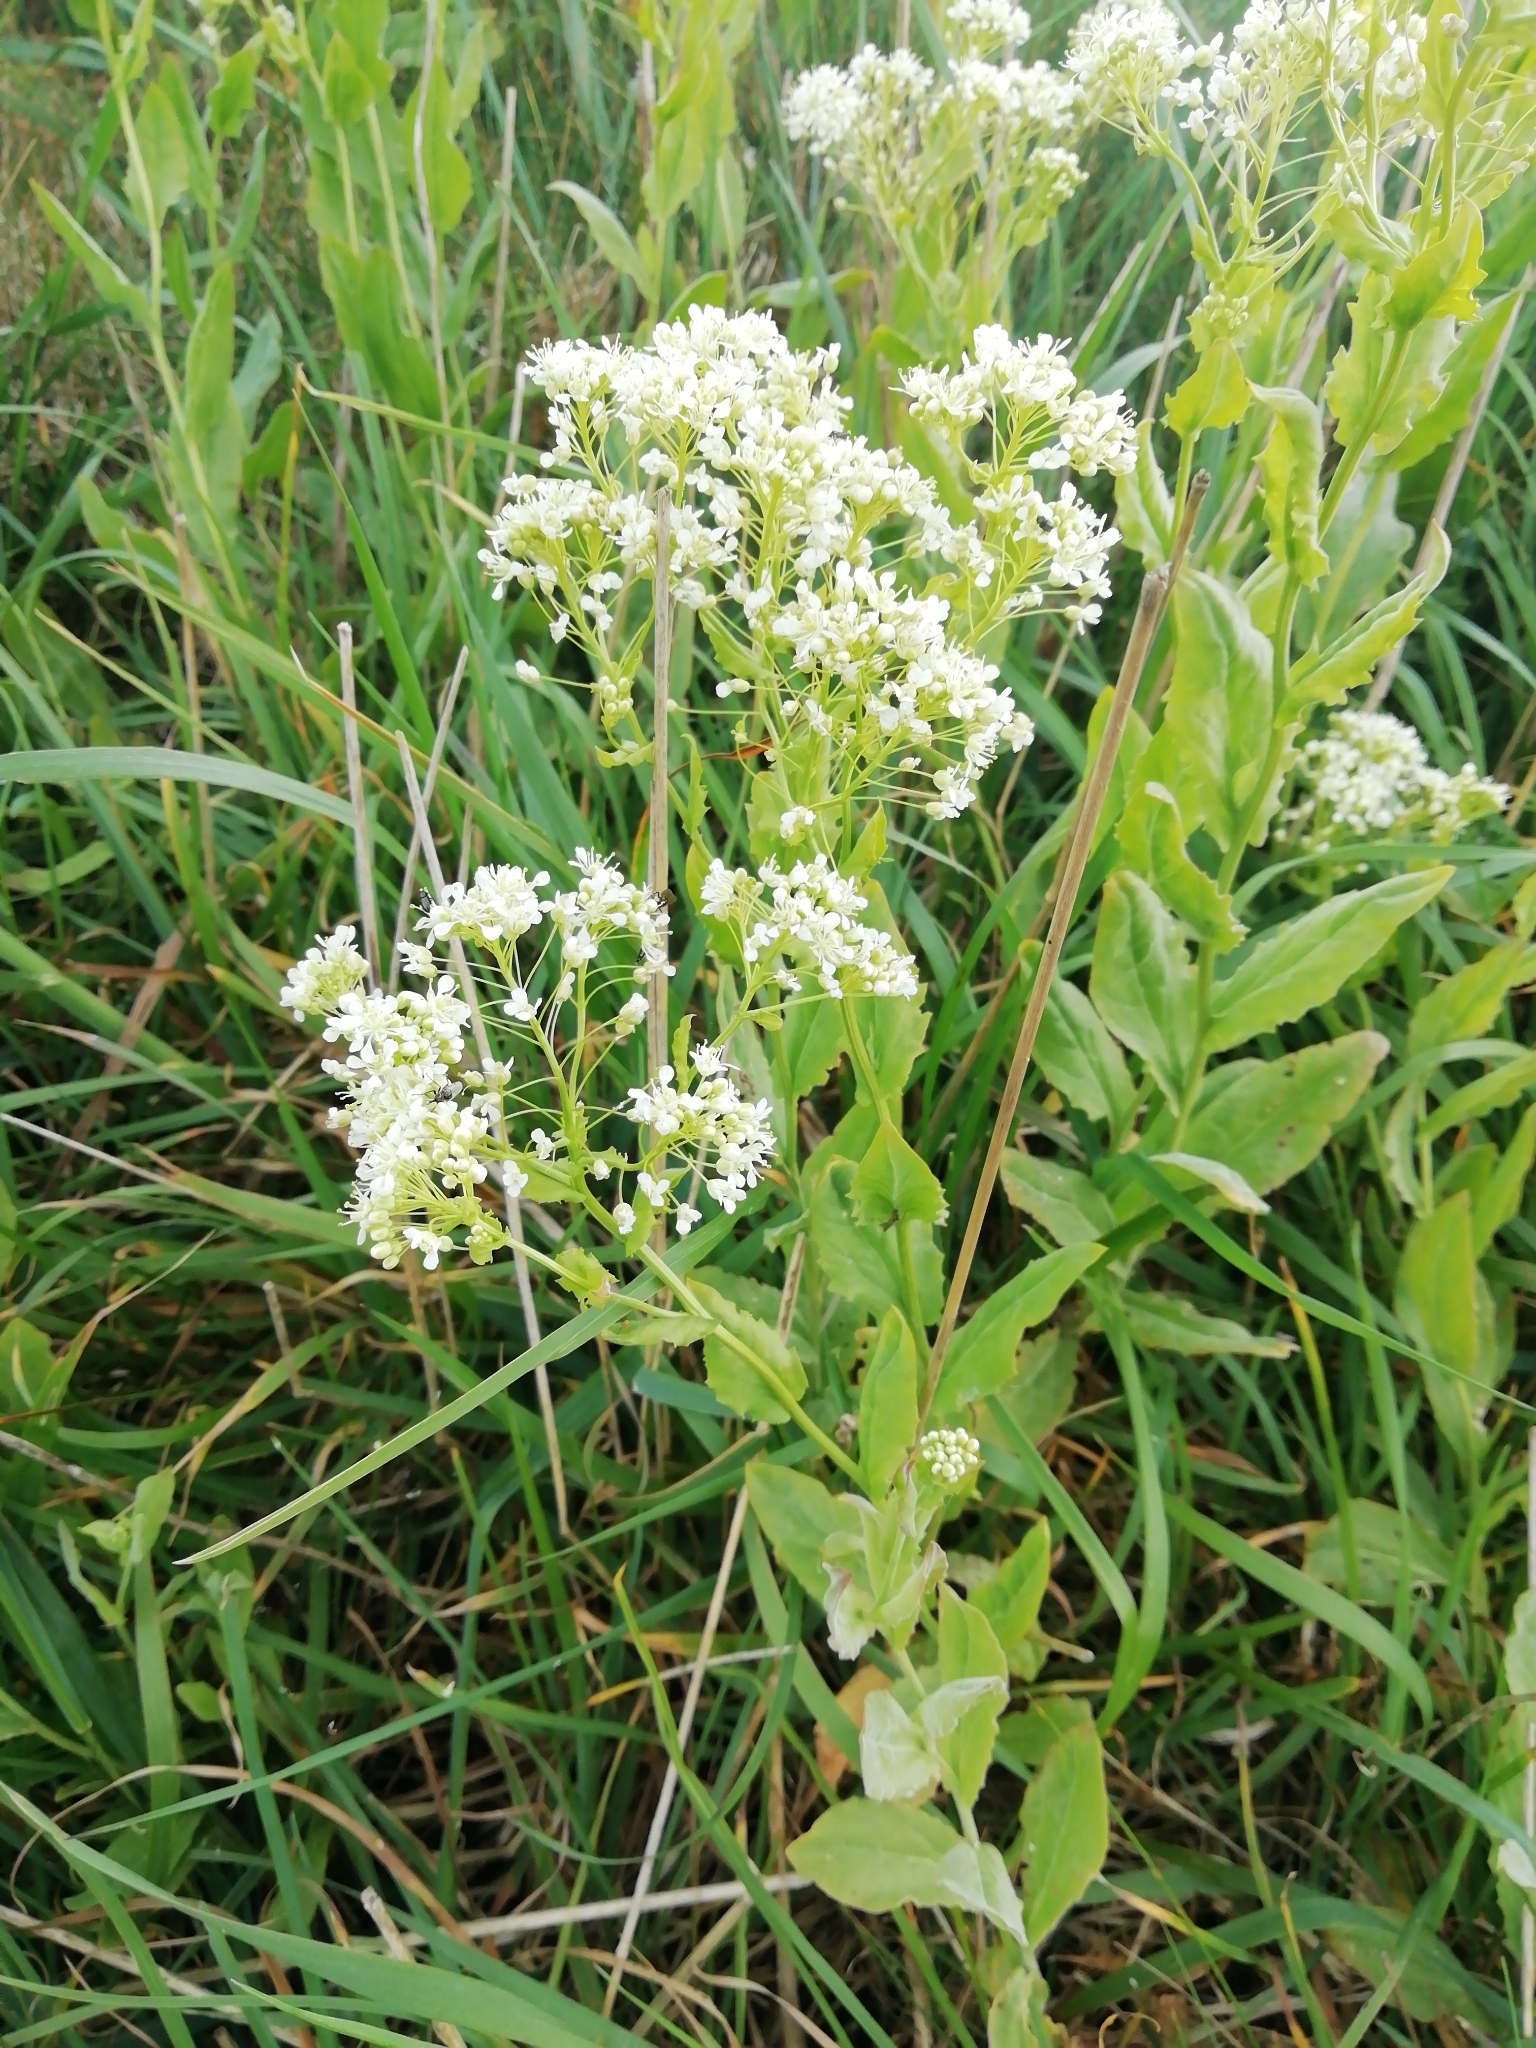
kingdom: Plantae
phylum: Tracheophyta
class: Magnoliopsida
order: Brassicales
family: Brassicaceae
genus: Lepidium
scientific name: Lepidium draba
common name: Hoary cress
